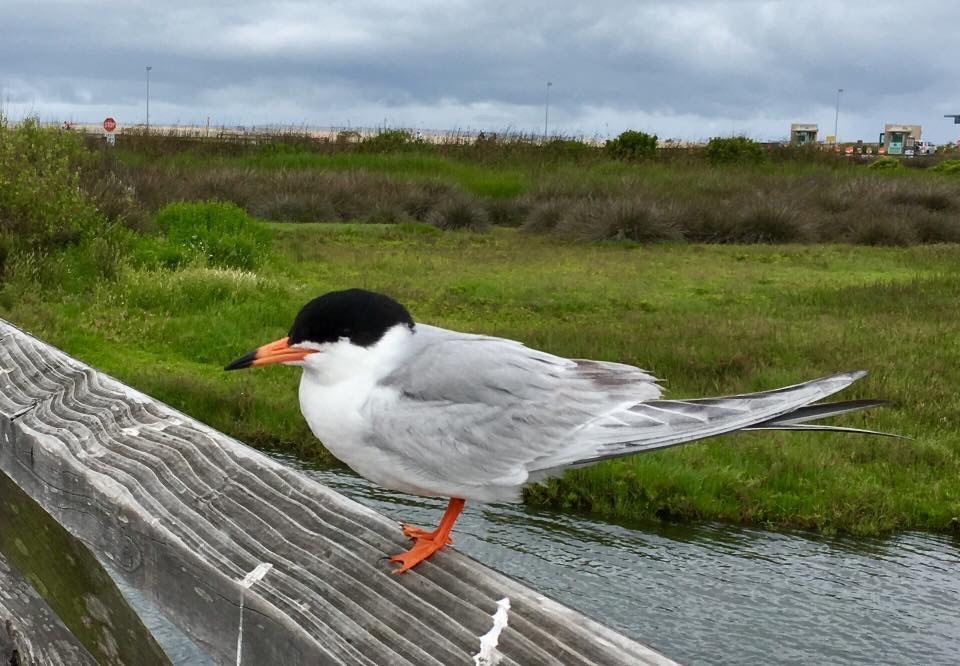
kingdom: Animalia
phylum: Chordata
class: Aves
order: Charadriiformes
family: Laridae
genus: Sterna
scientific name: Sterna forsteri
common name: Forster's tern
